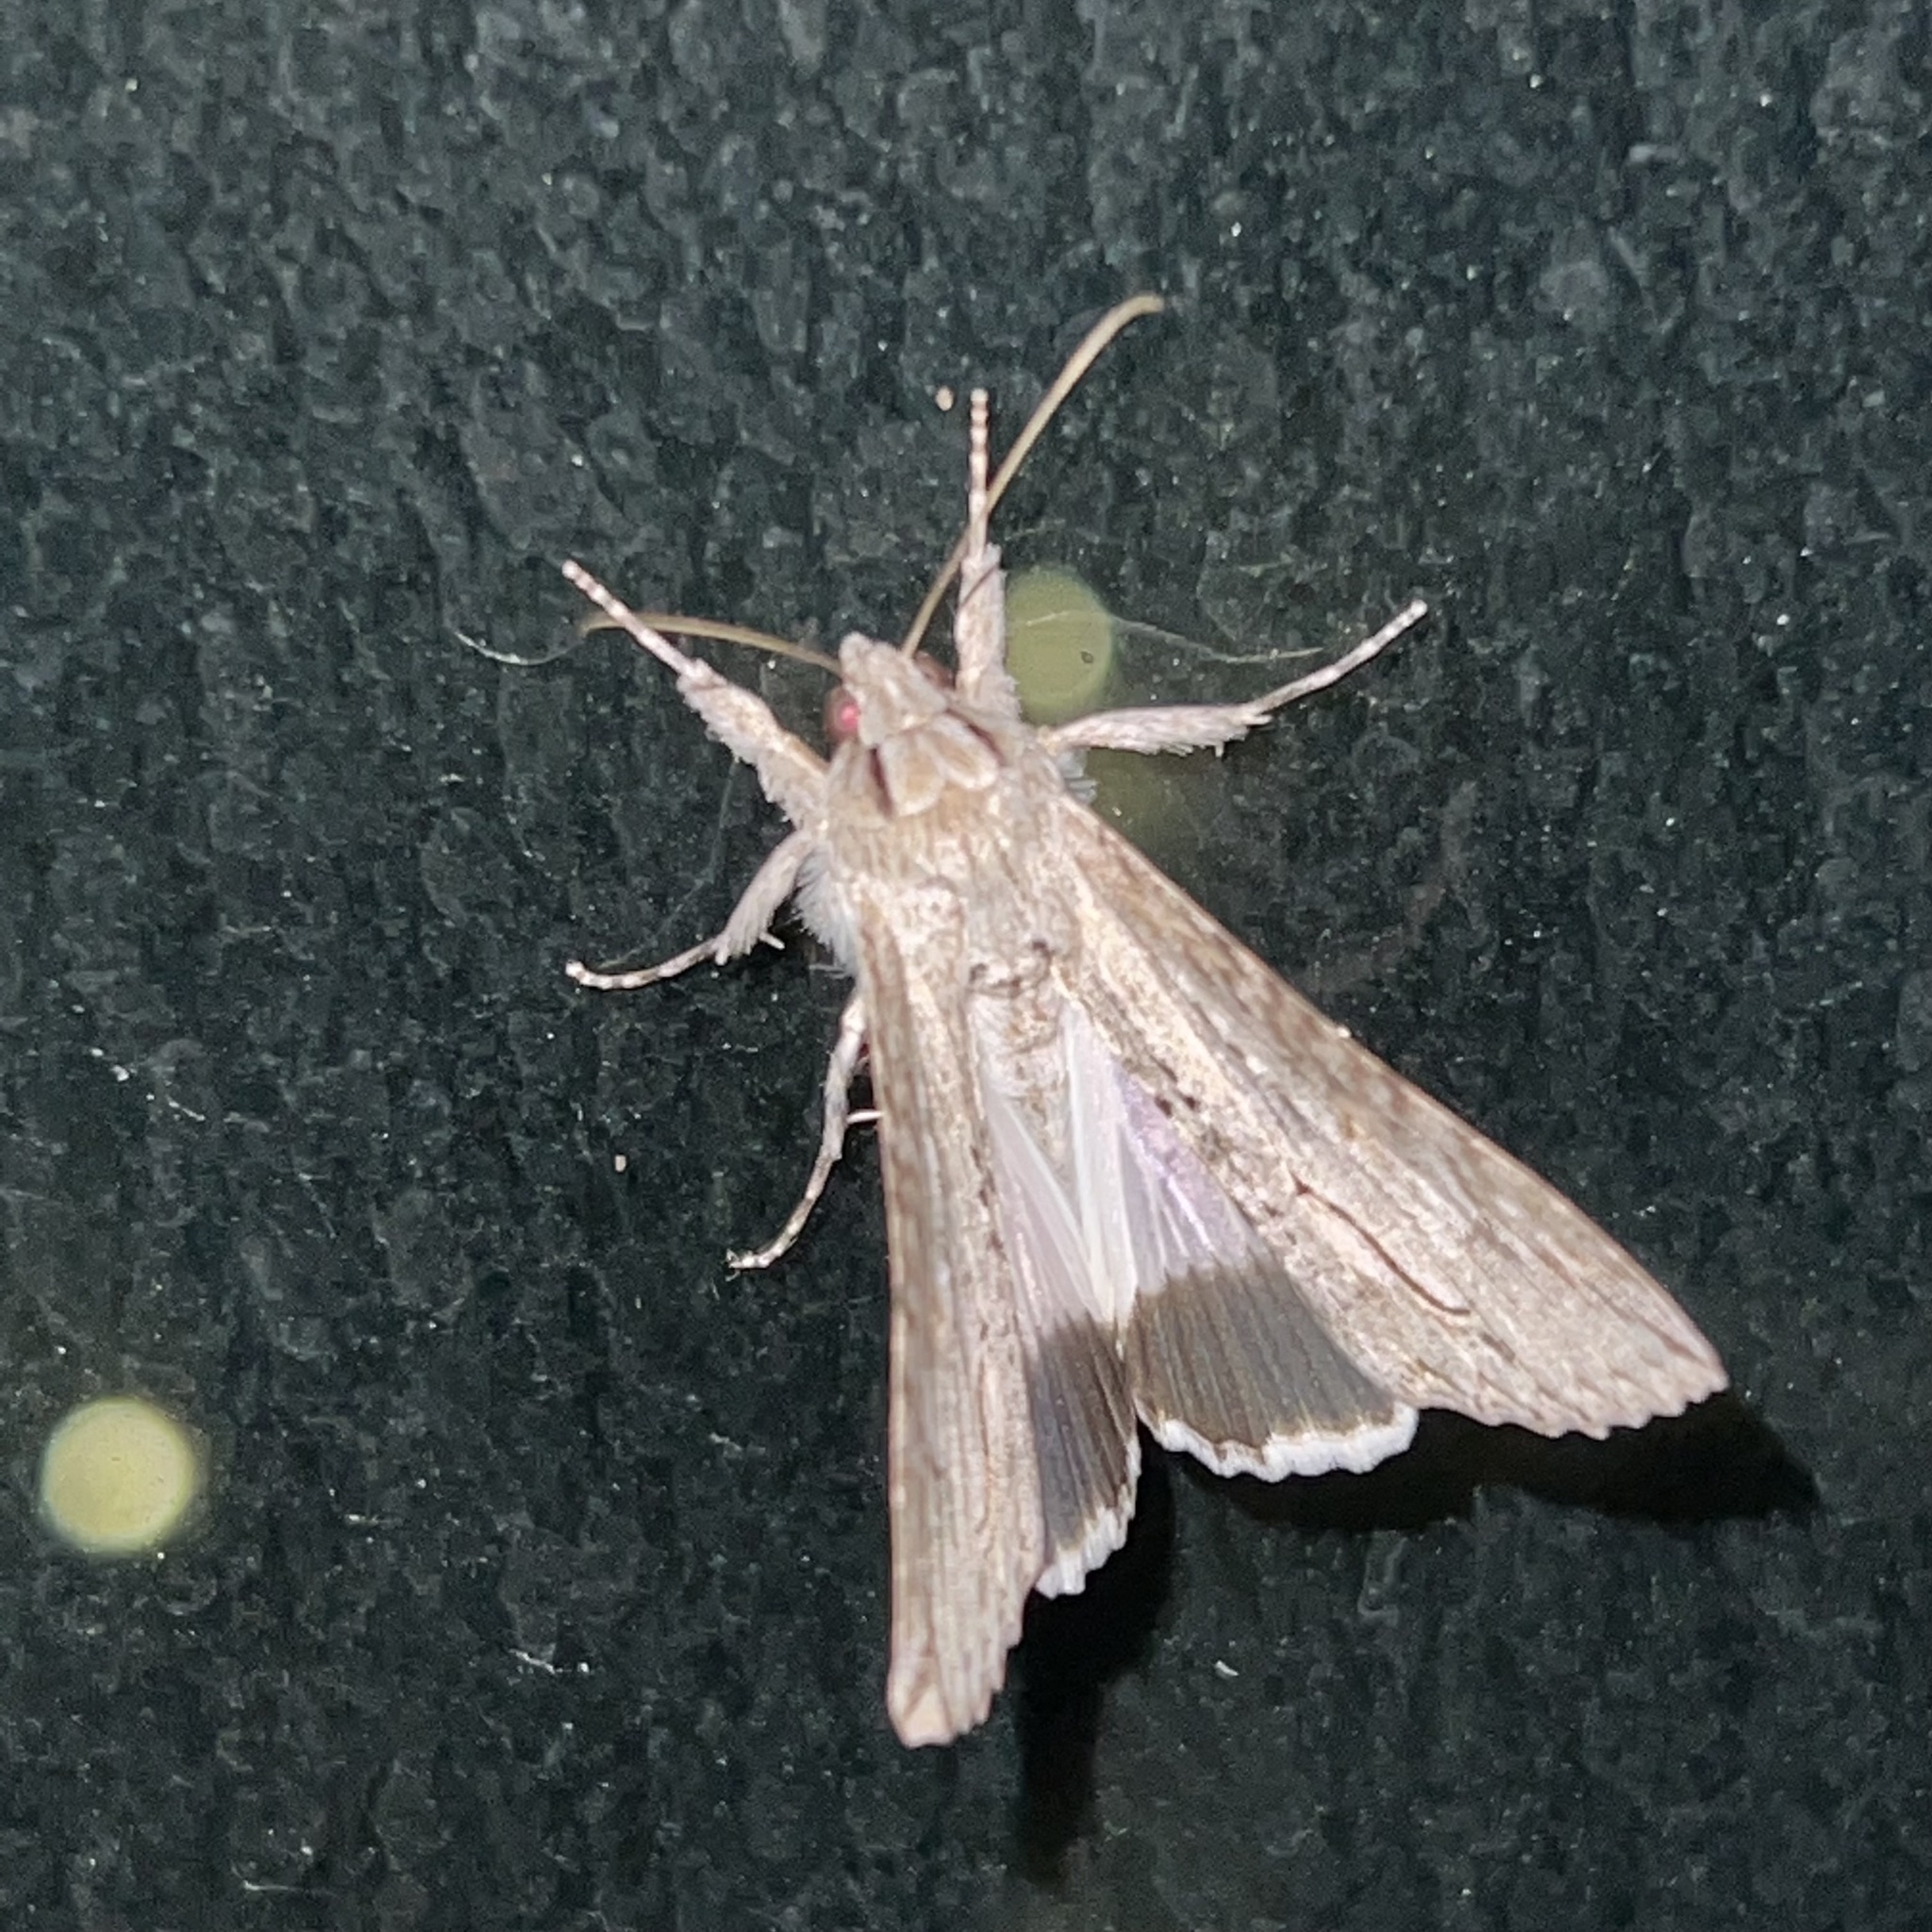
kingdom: Animalia
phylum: Arthropoda
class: Insecta
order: Lepidoptera
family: Erebidae
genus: Melipotis
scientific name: Melipotis acontioides
